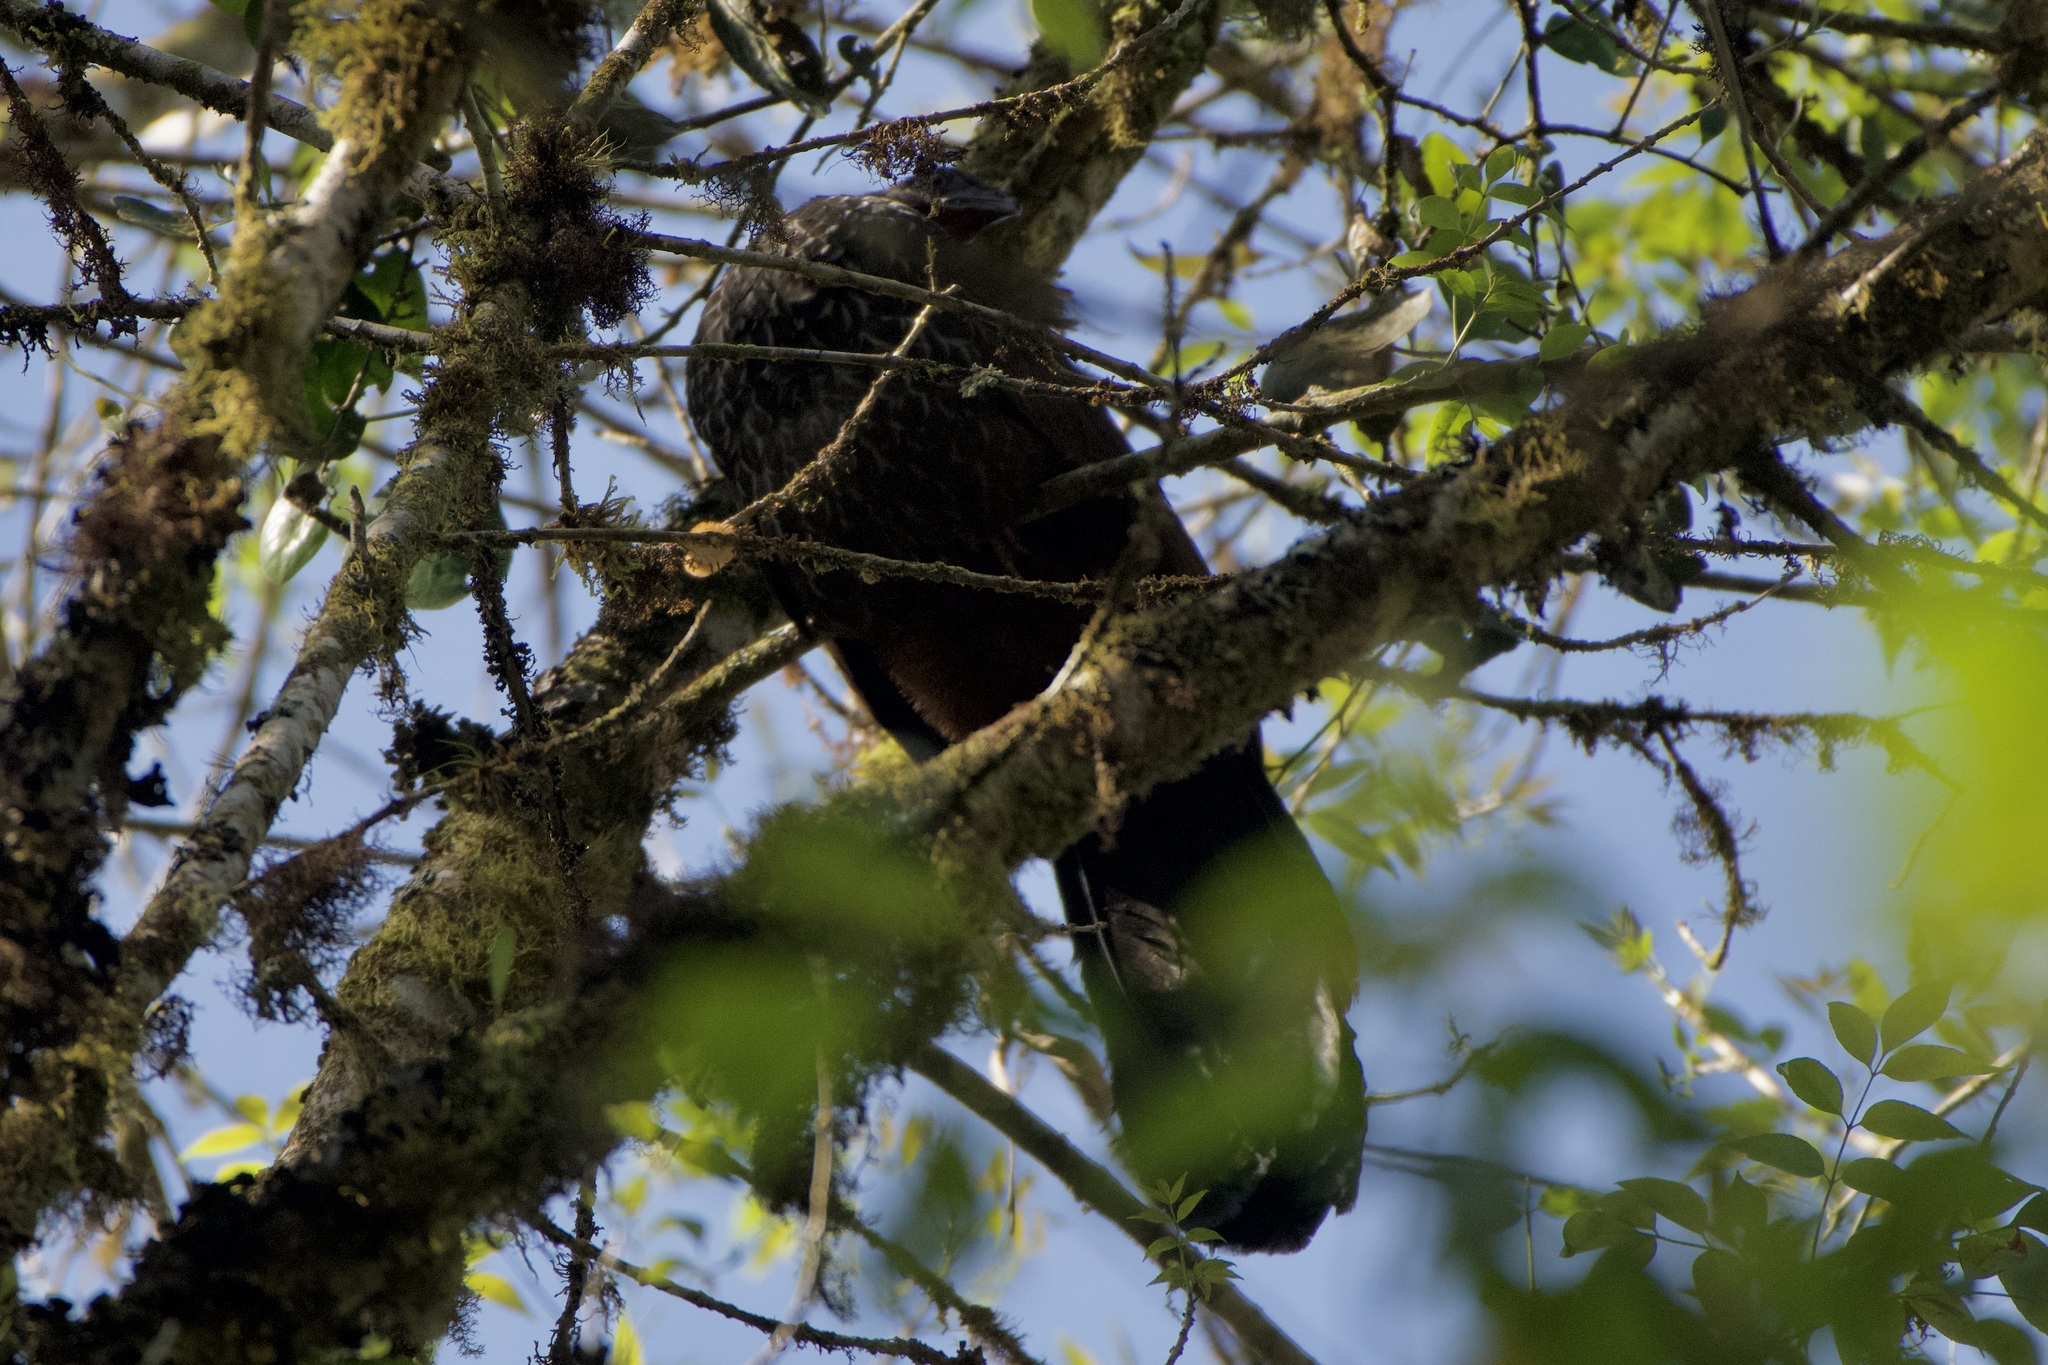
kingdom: Animalia
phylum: Chordata
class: Aves
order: Galliformes
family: Cracidae
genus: Penelope
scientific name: Penelope montagnii
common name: Andean guan
